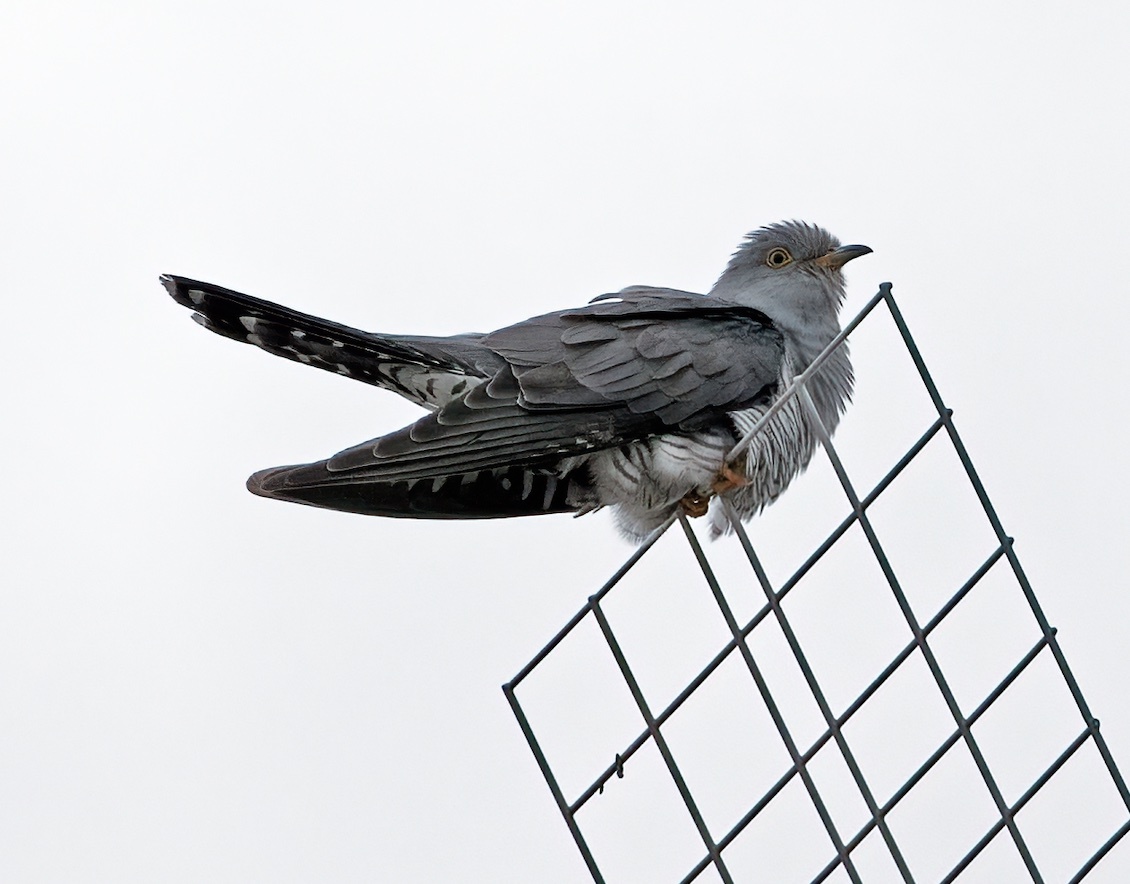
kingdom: Animalia
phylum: Chordata
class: Aves
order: Cuculiformes
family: Cuculidae
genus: Cuculus
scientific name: Cuculus canorus
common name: Common cuckoo
